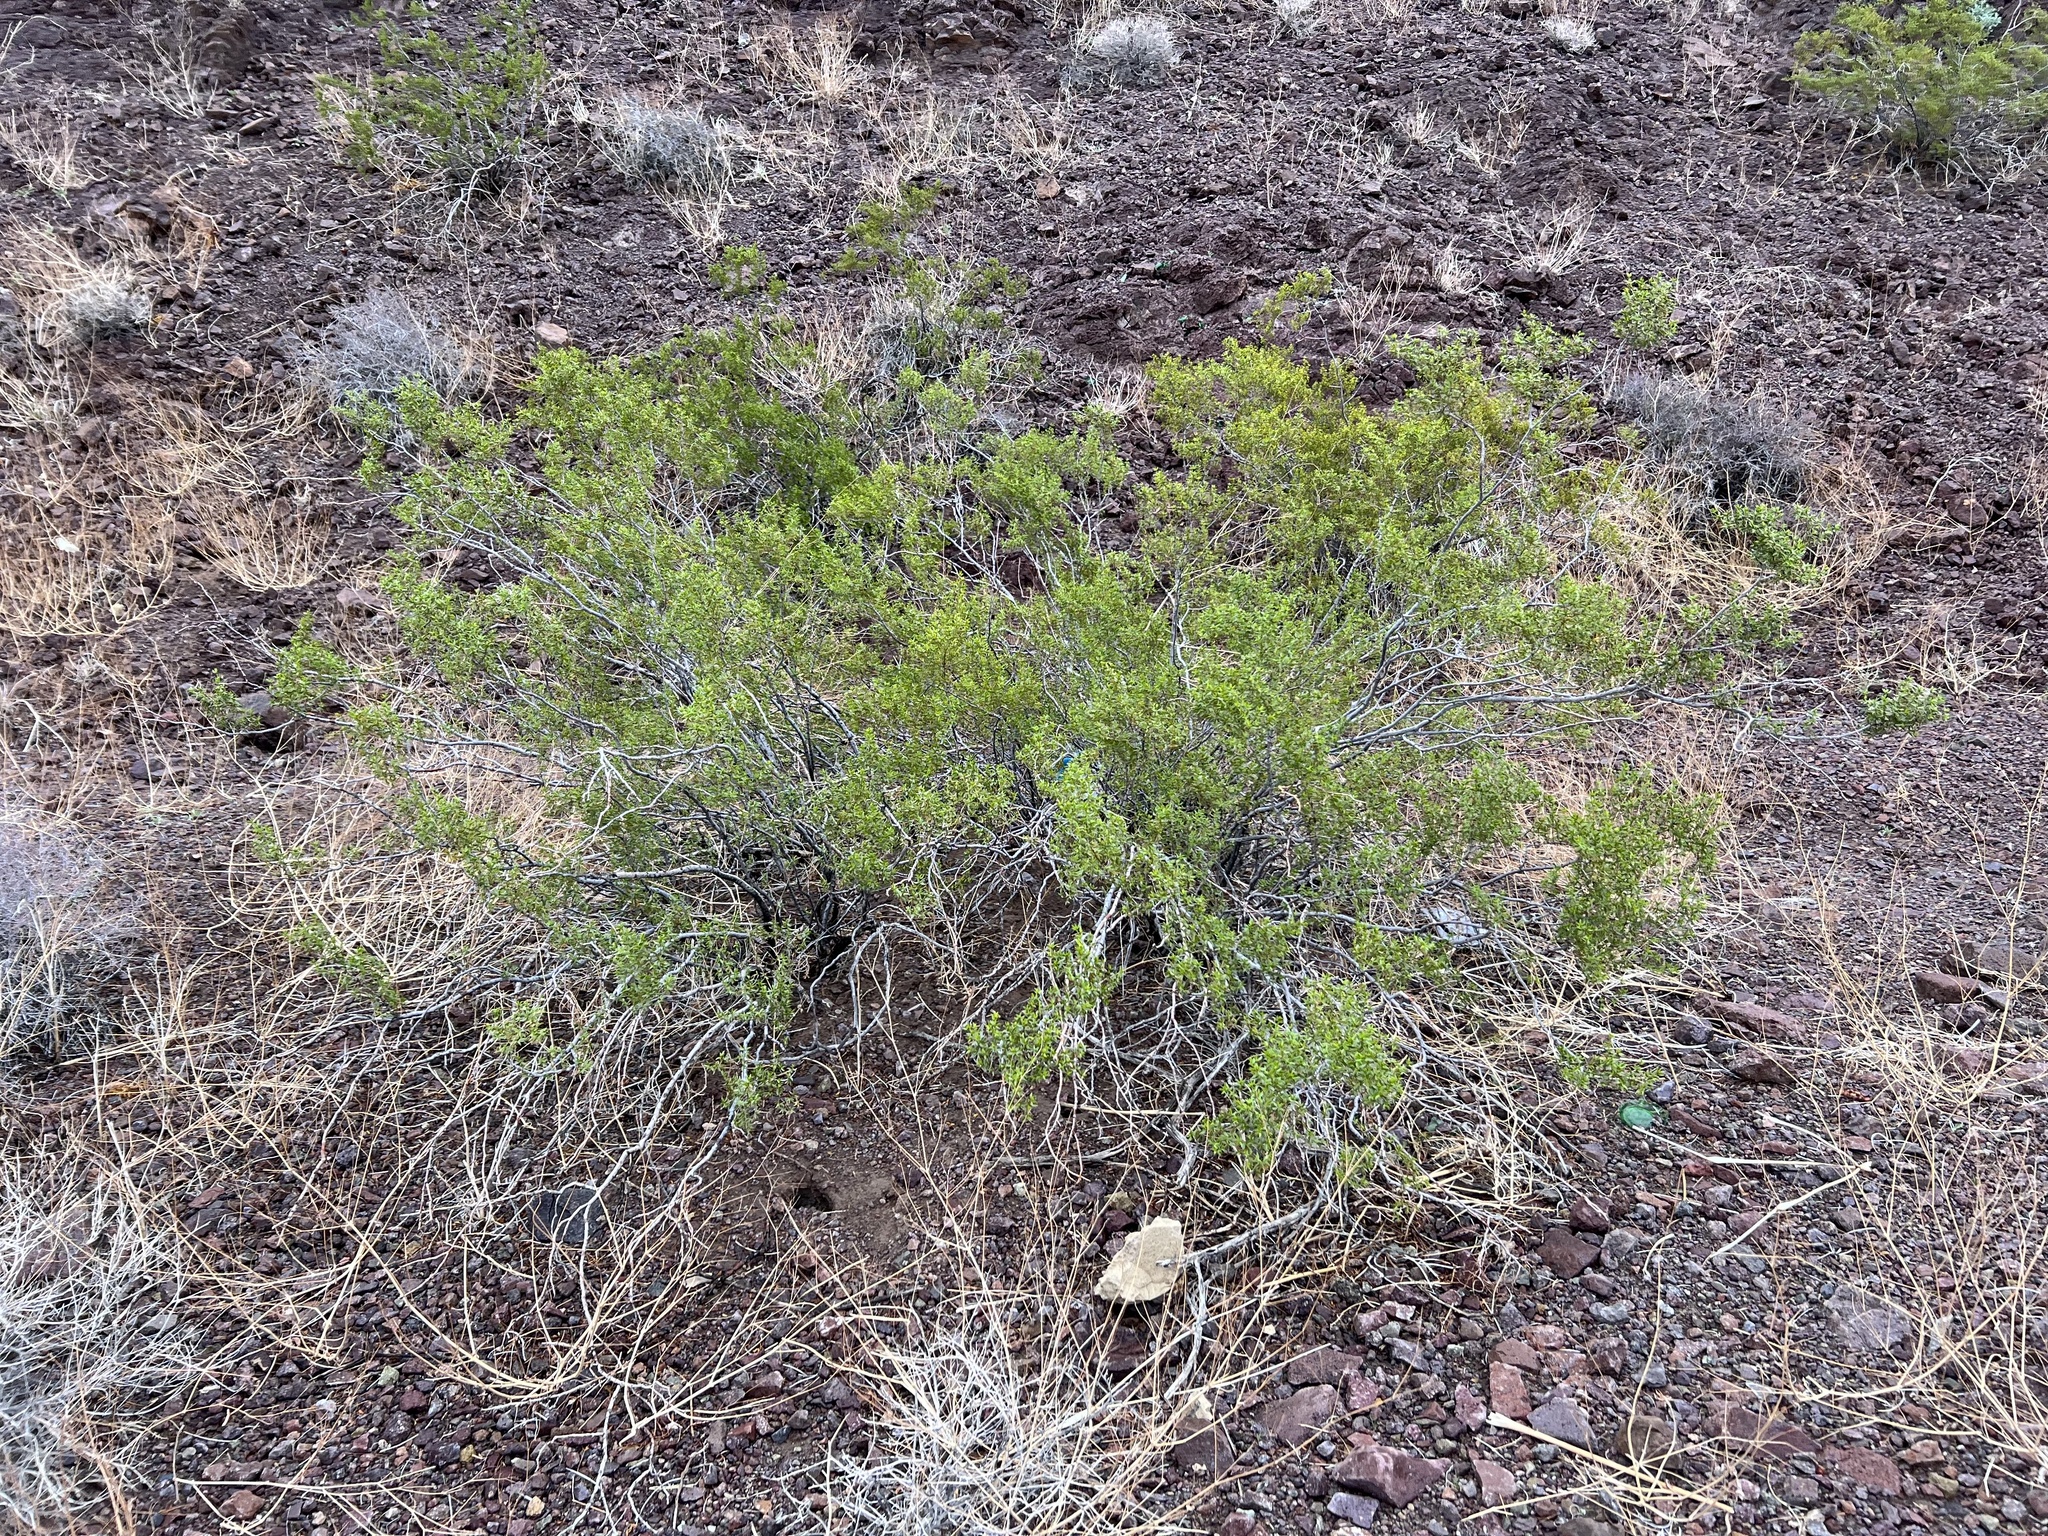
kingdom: Plantae
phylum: Tracheophyta
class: Magnoliopsida
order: Zygophyllales
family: Zygophyllaceae
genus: Larrea
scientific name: Larrea tridentata
